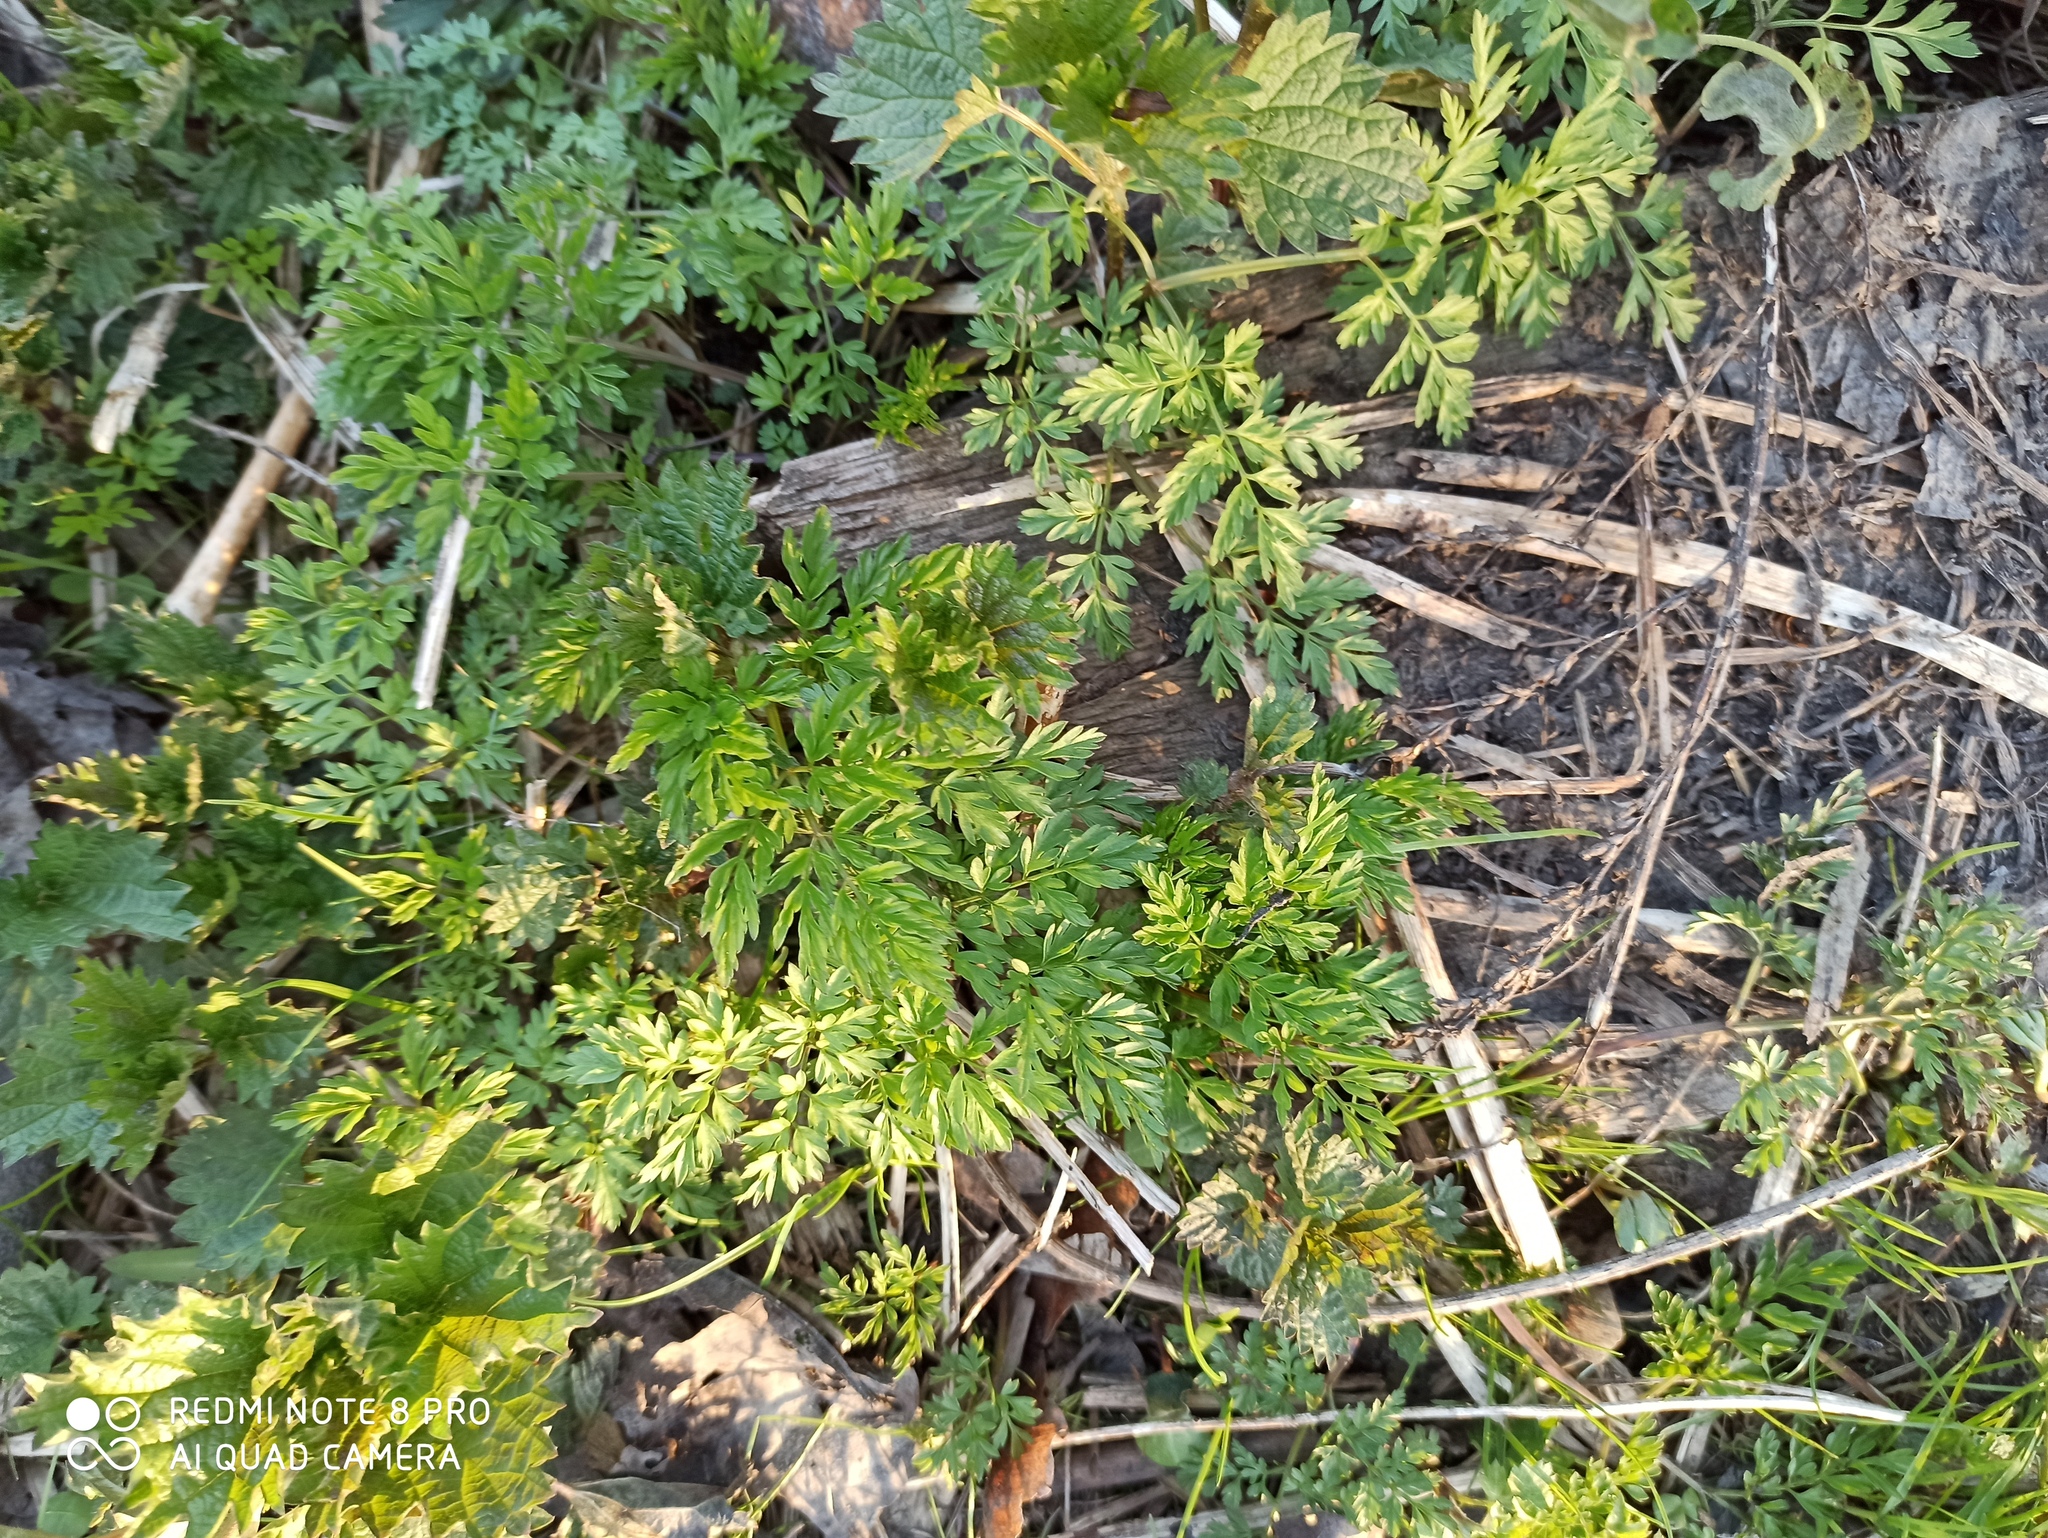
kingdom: Plantae
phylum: Tracheophyta
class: Magnoliopsida
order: Apiales
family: Apiaceae
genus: Anthriscus
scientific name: Anthriscus sylvestris
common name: Cow parsley
